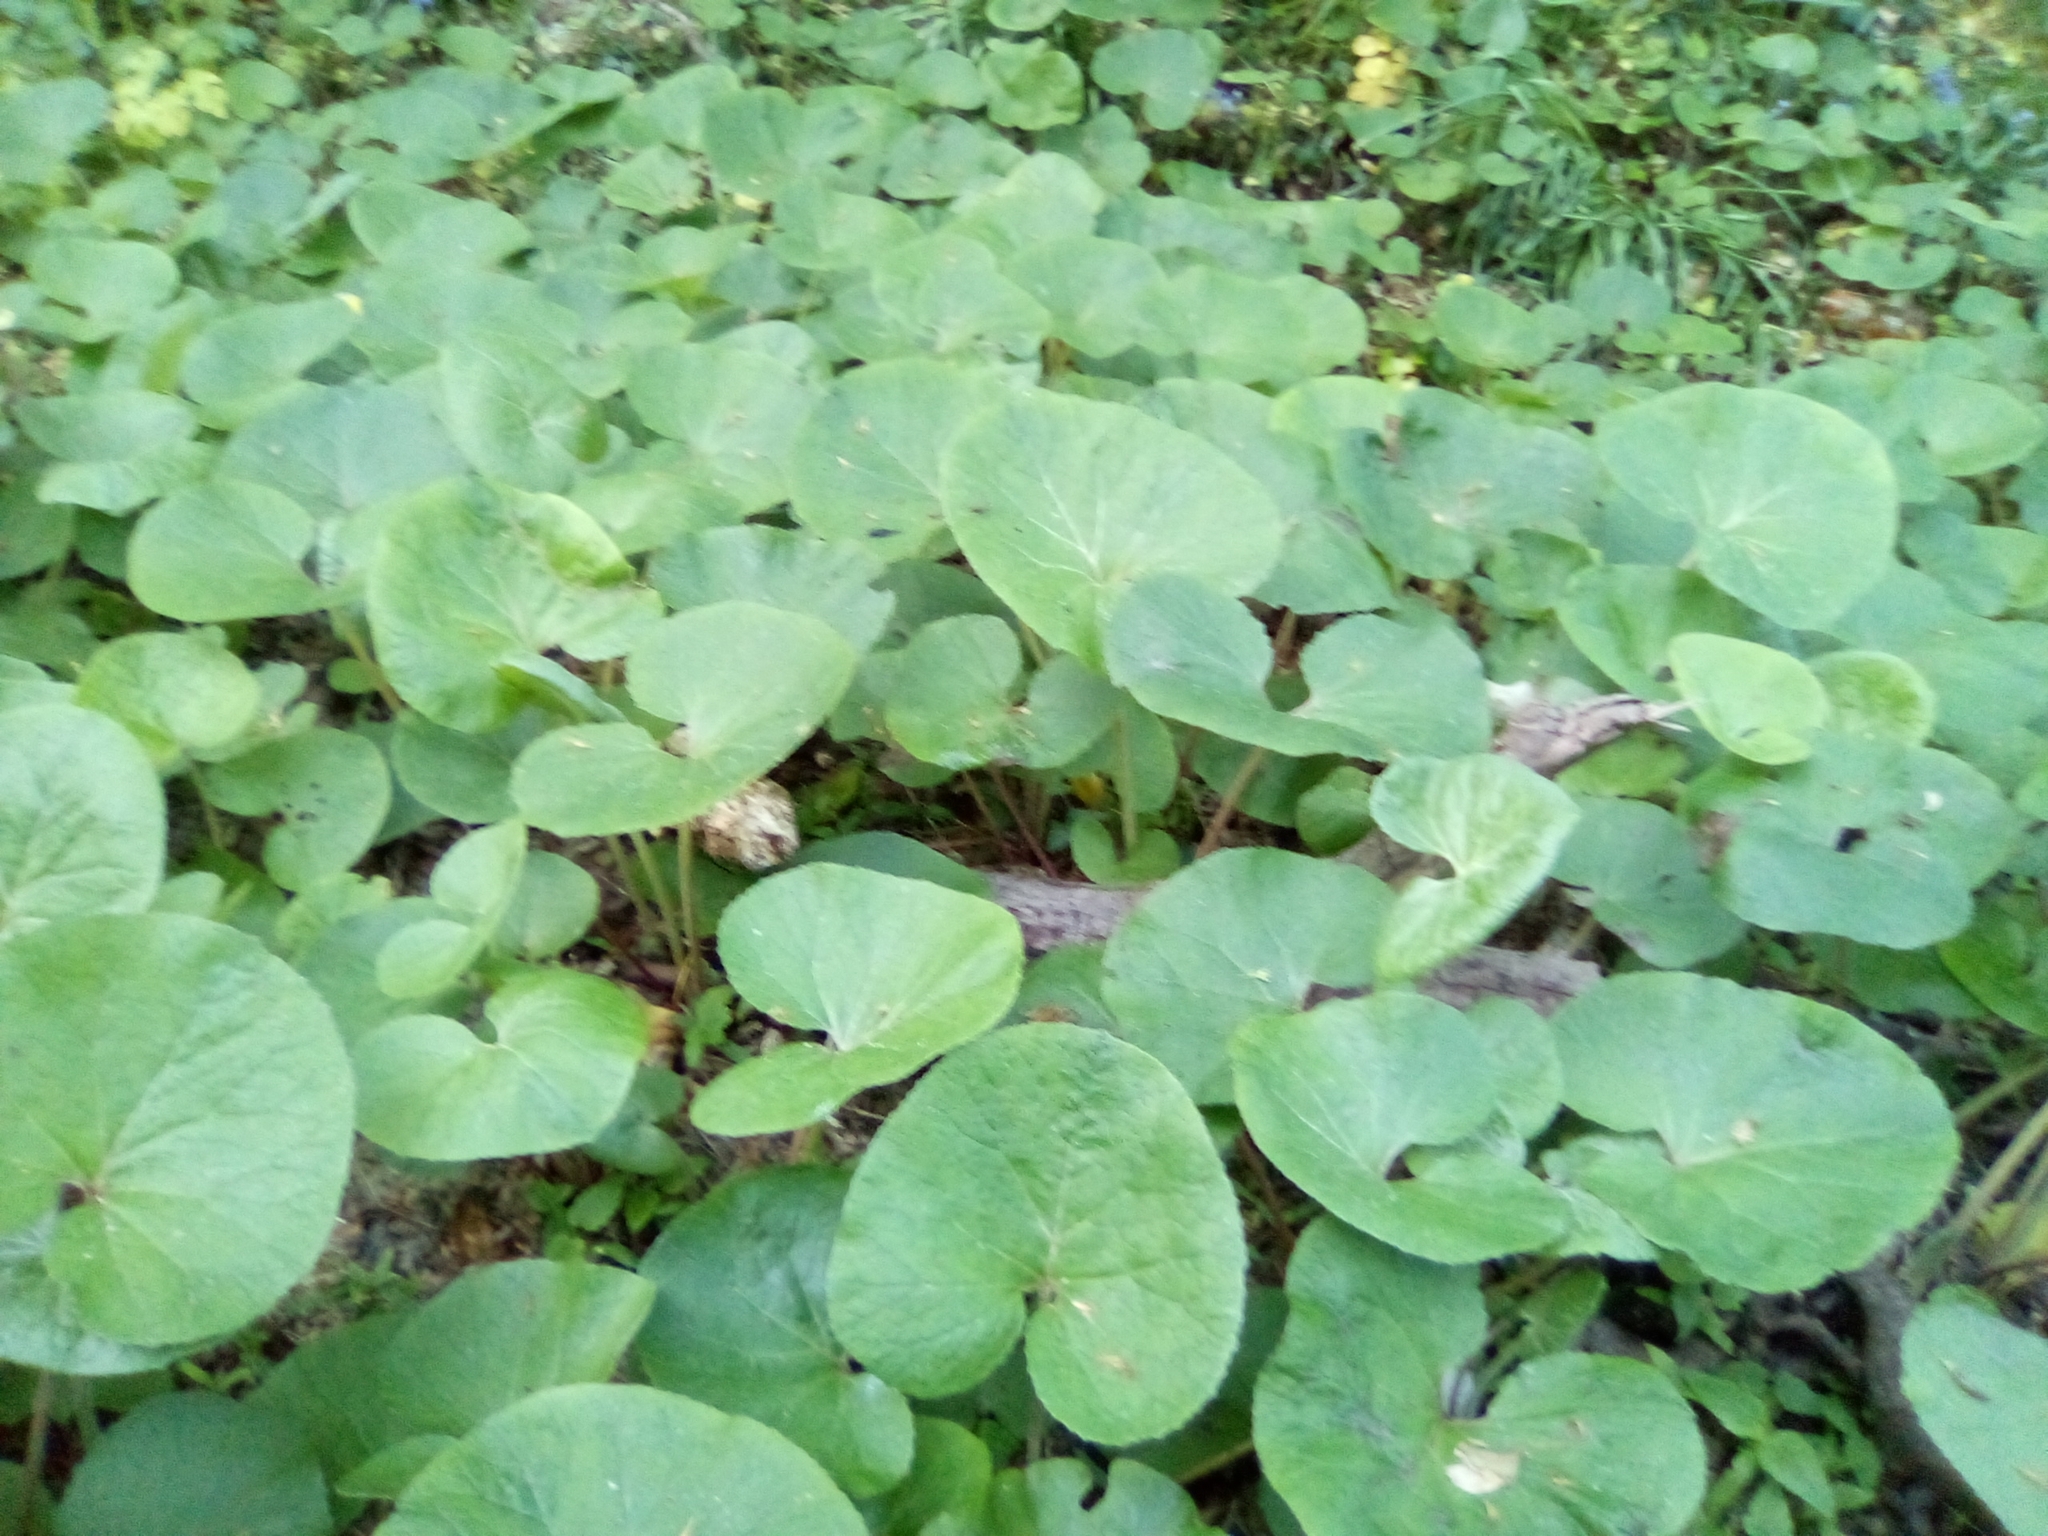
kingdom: Plantae
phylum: Tracheophyta
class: Magnoliopsida
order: Asterales
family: Asteraceae
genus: Petasites
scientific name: Petasites pyrenaicus
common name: Winter heliotrope
